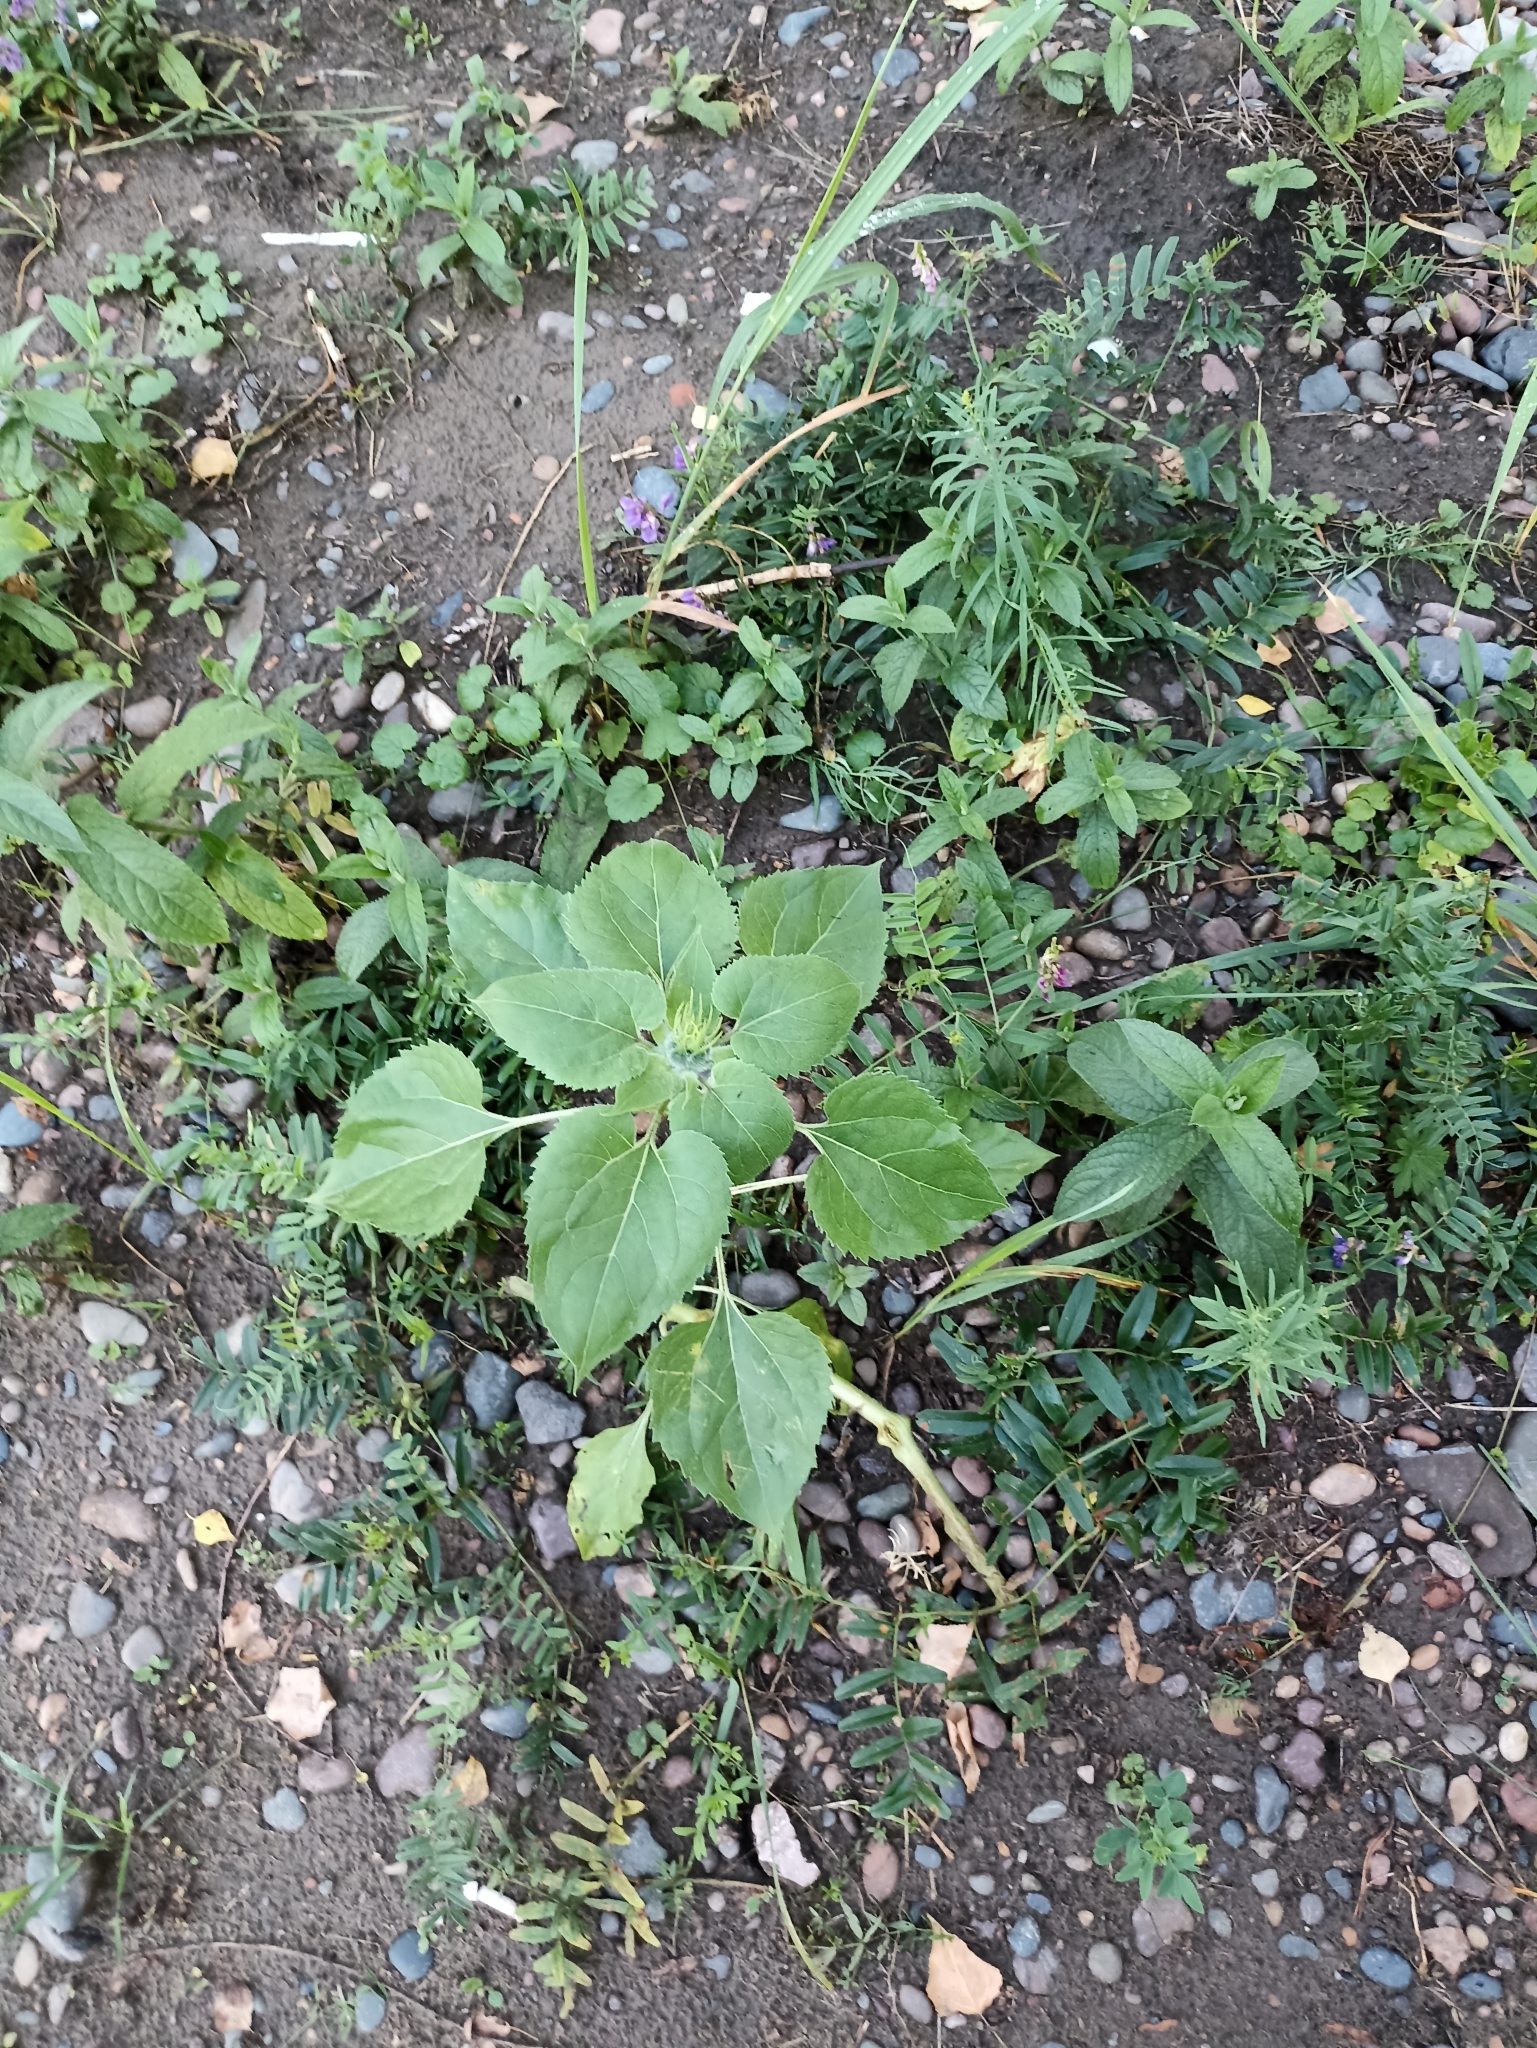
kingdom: Plantae
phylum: Tracheophyta
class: Magnoliopsida
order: Asterales
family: Asteraceae
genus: Helianthus
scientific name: Helianthus annuus
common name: Sunflower
